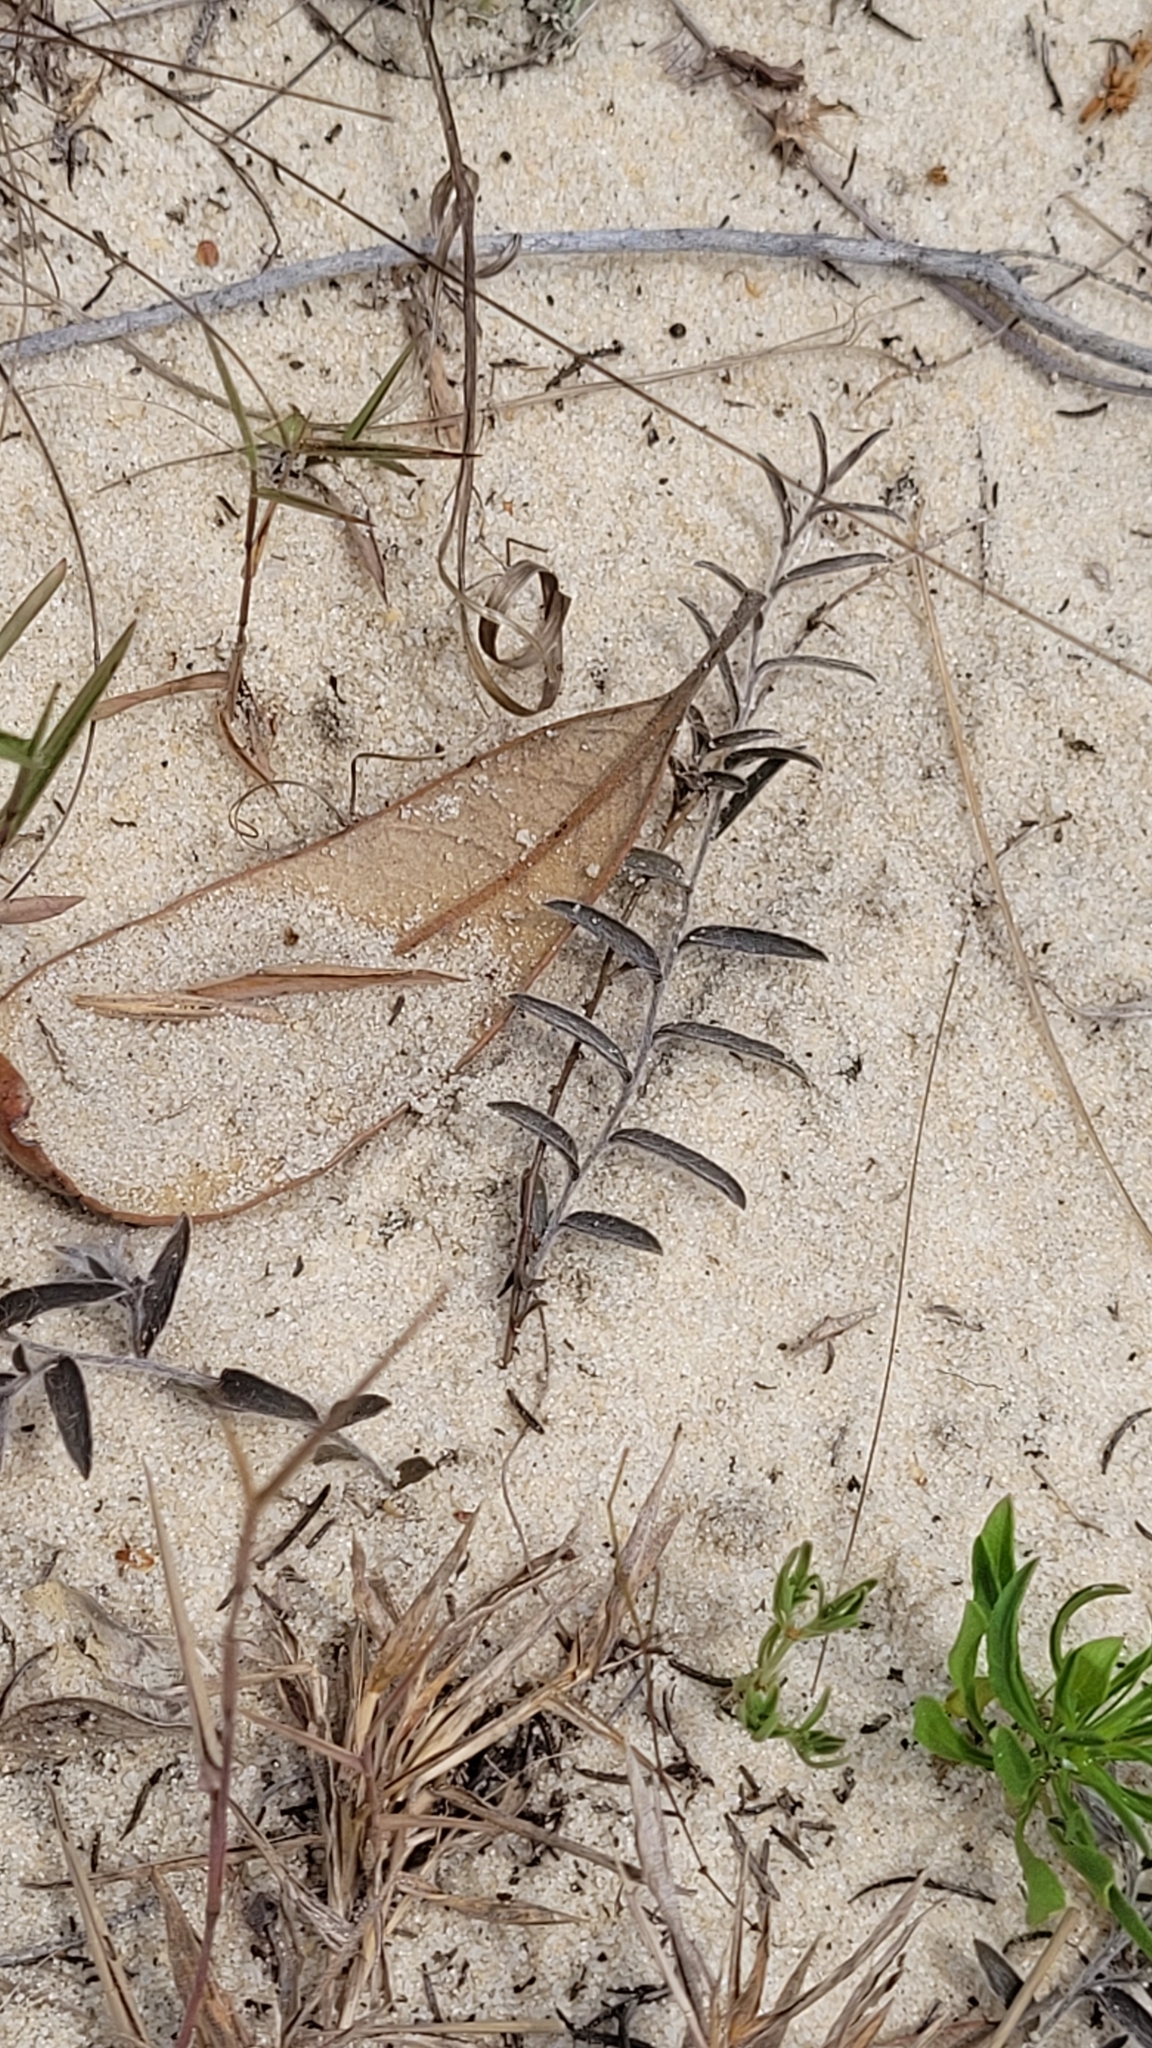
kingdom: Plantae
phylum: Tracheophyta
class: Magnoliopsida
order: Solanales
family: Convolvulaceae
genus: Stylisma
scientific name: Stylisma abdita
